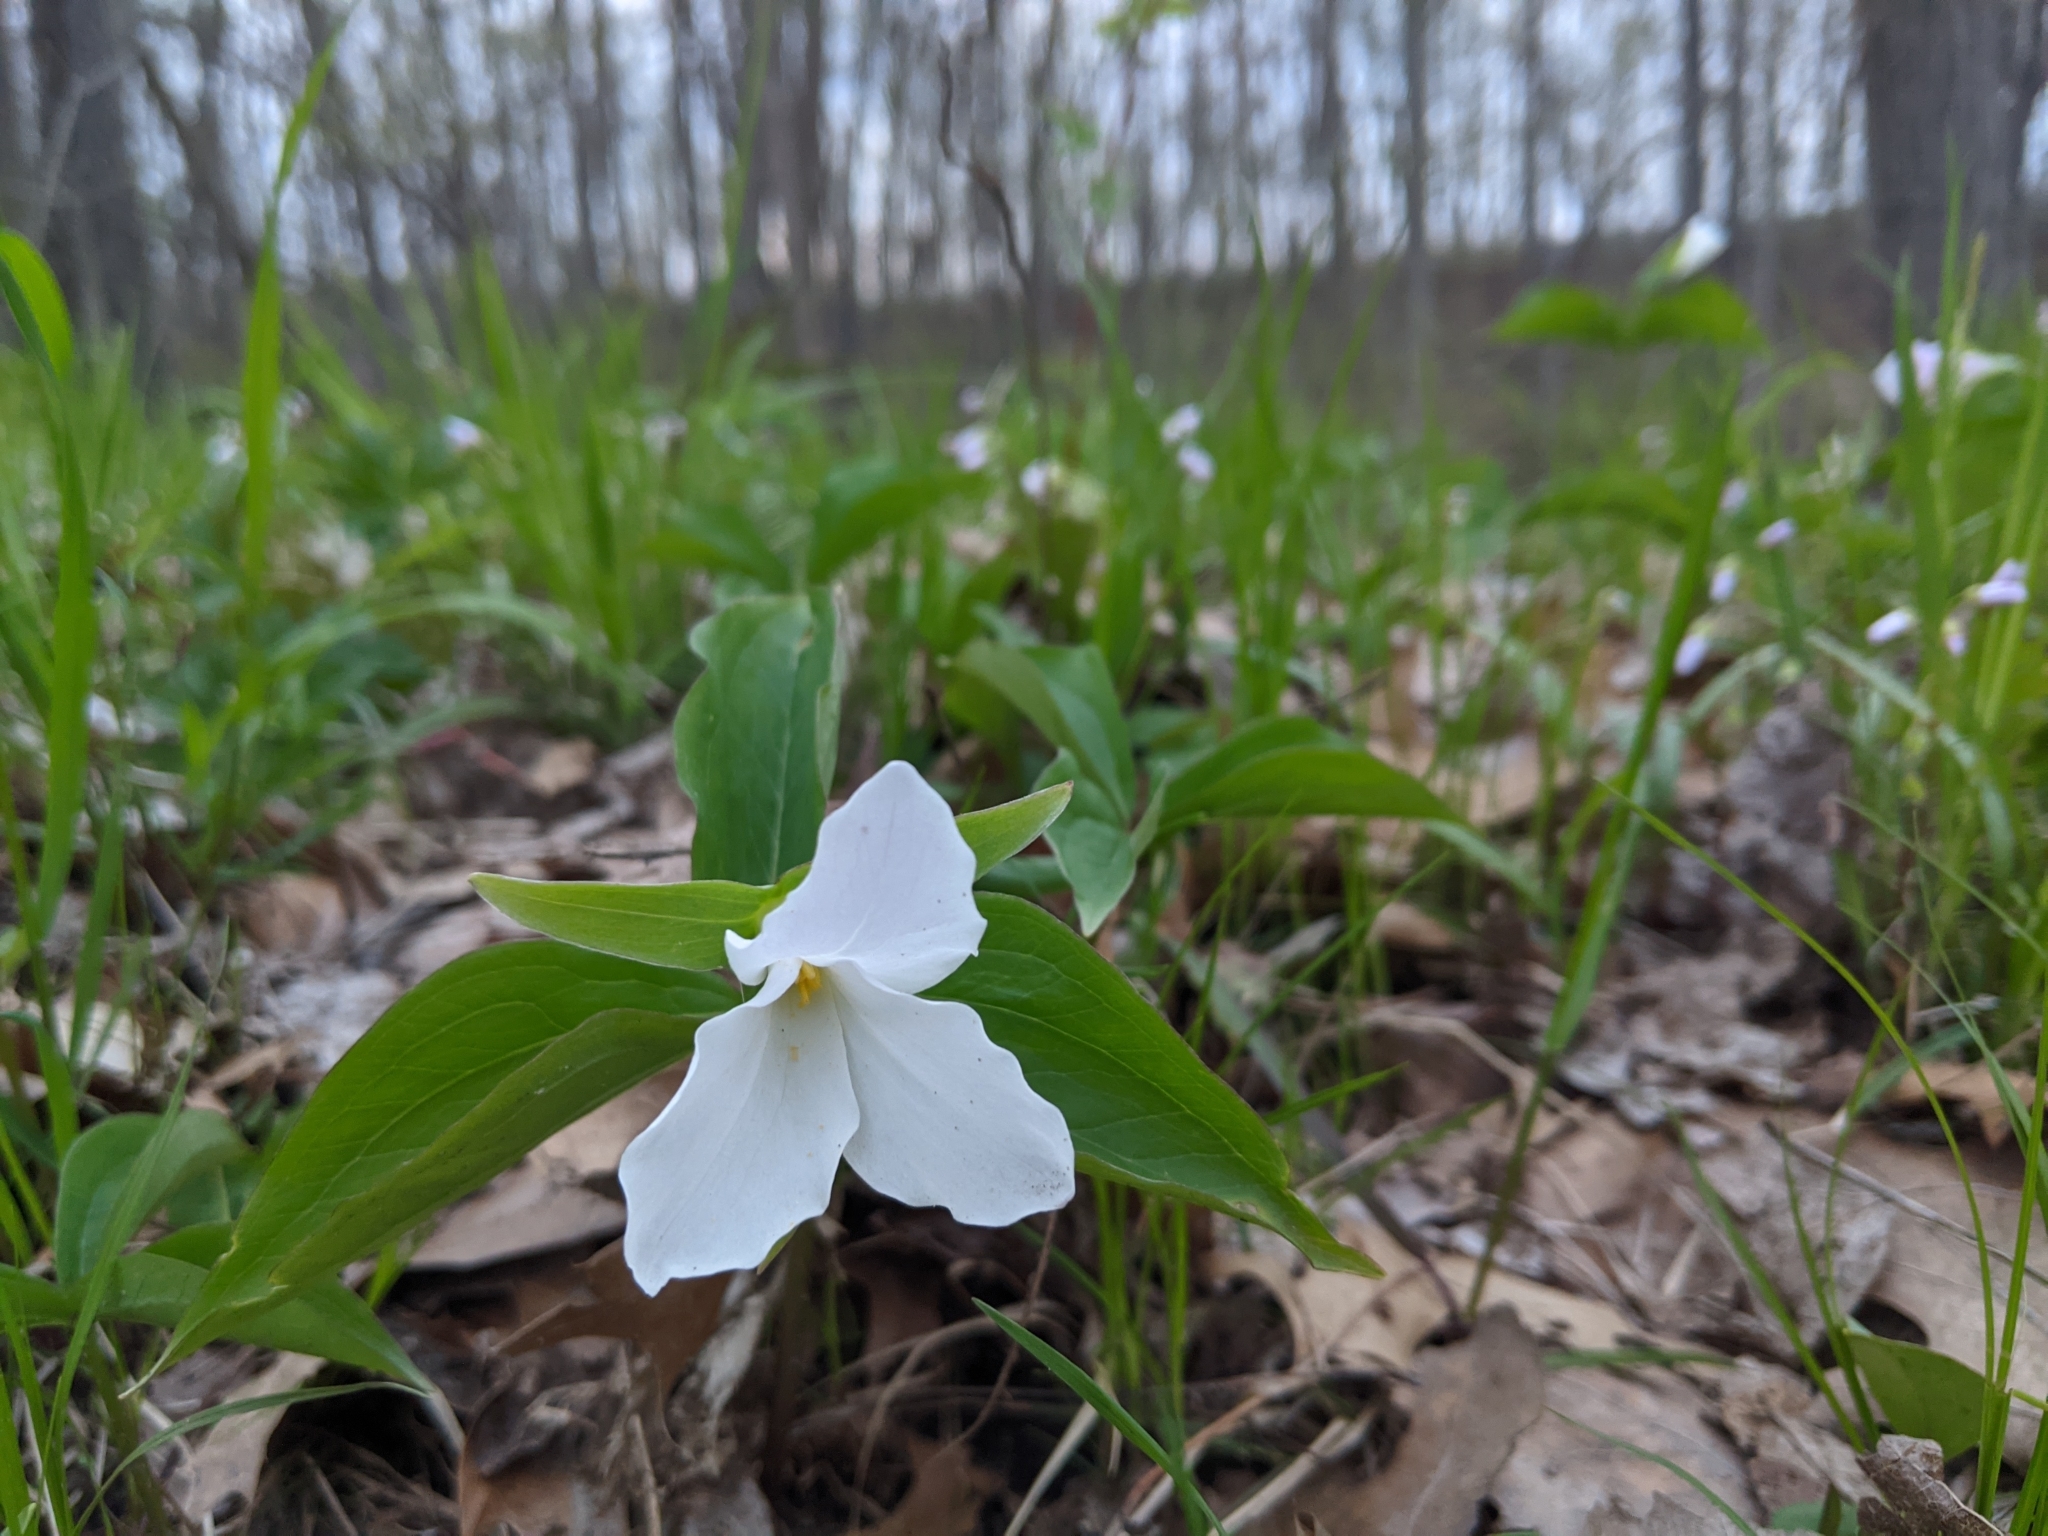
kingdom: Plantae
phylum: Tracheophyta
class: Liliopsida
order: Liliales
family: Melanthiaceae
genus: Trillium
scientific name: Trillium grandiflorum
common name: Great white trillium
